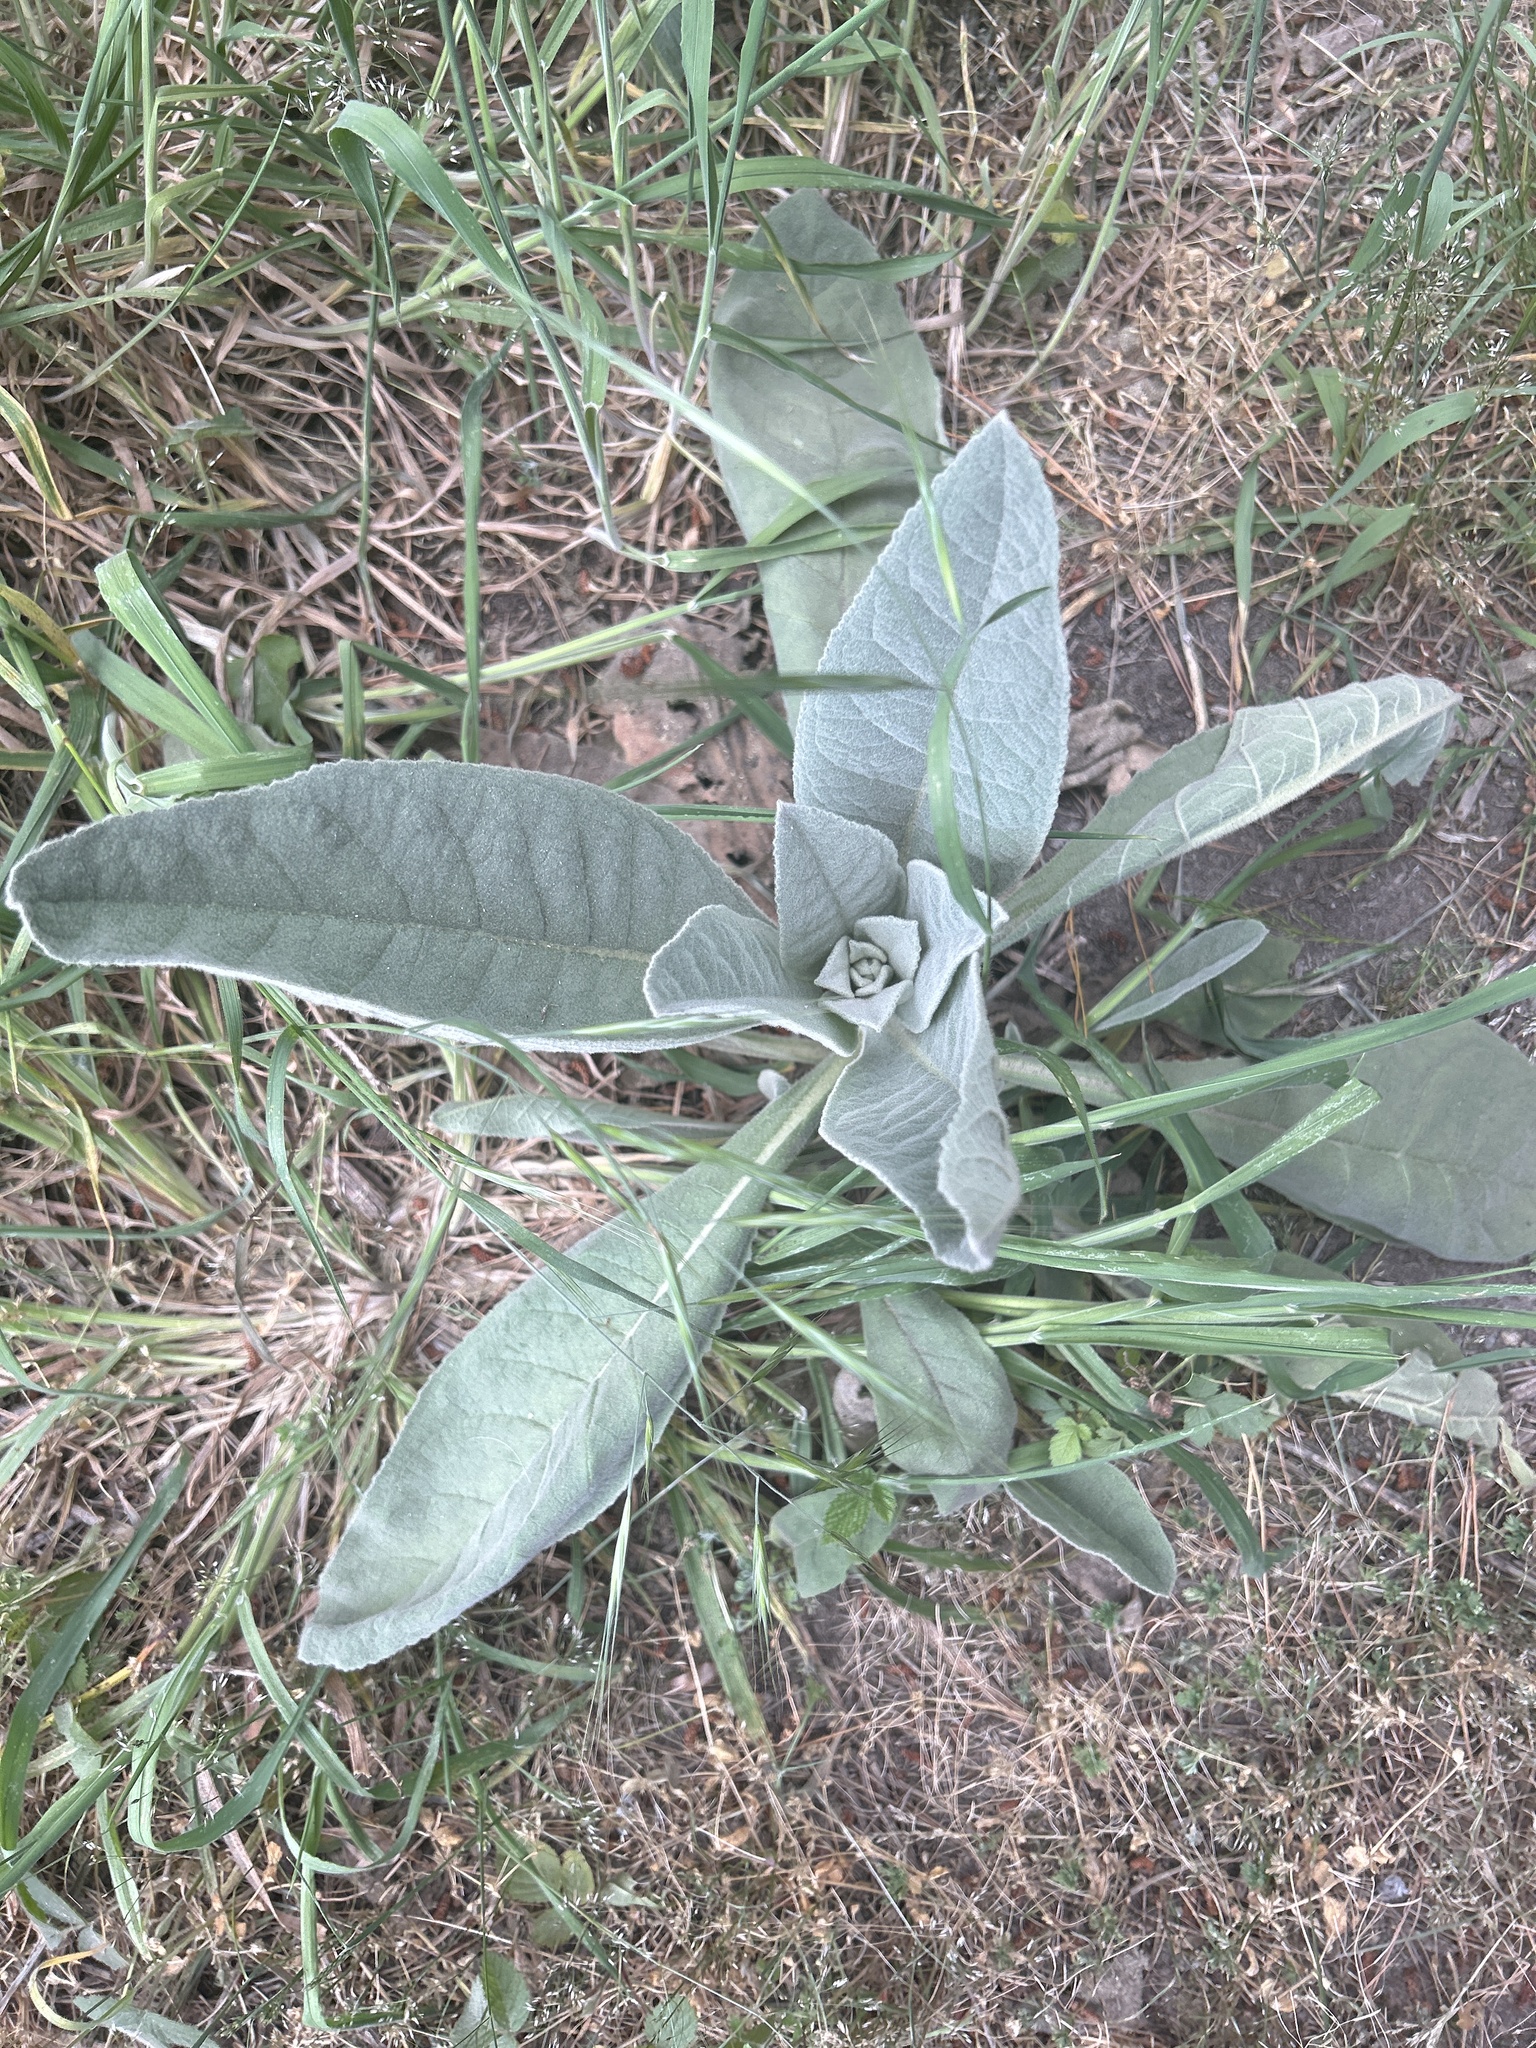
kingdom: Plantae
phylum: Tracheophyta
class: Magnoliopsida
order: Lamiales
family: Scrophulariaceae
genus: Verbascum
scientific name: Verbascum thapsus
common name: Common mullein
